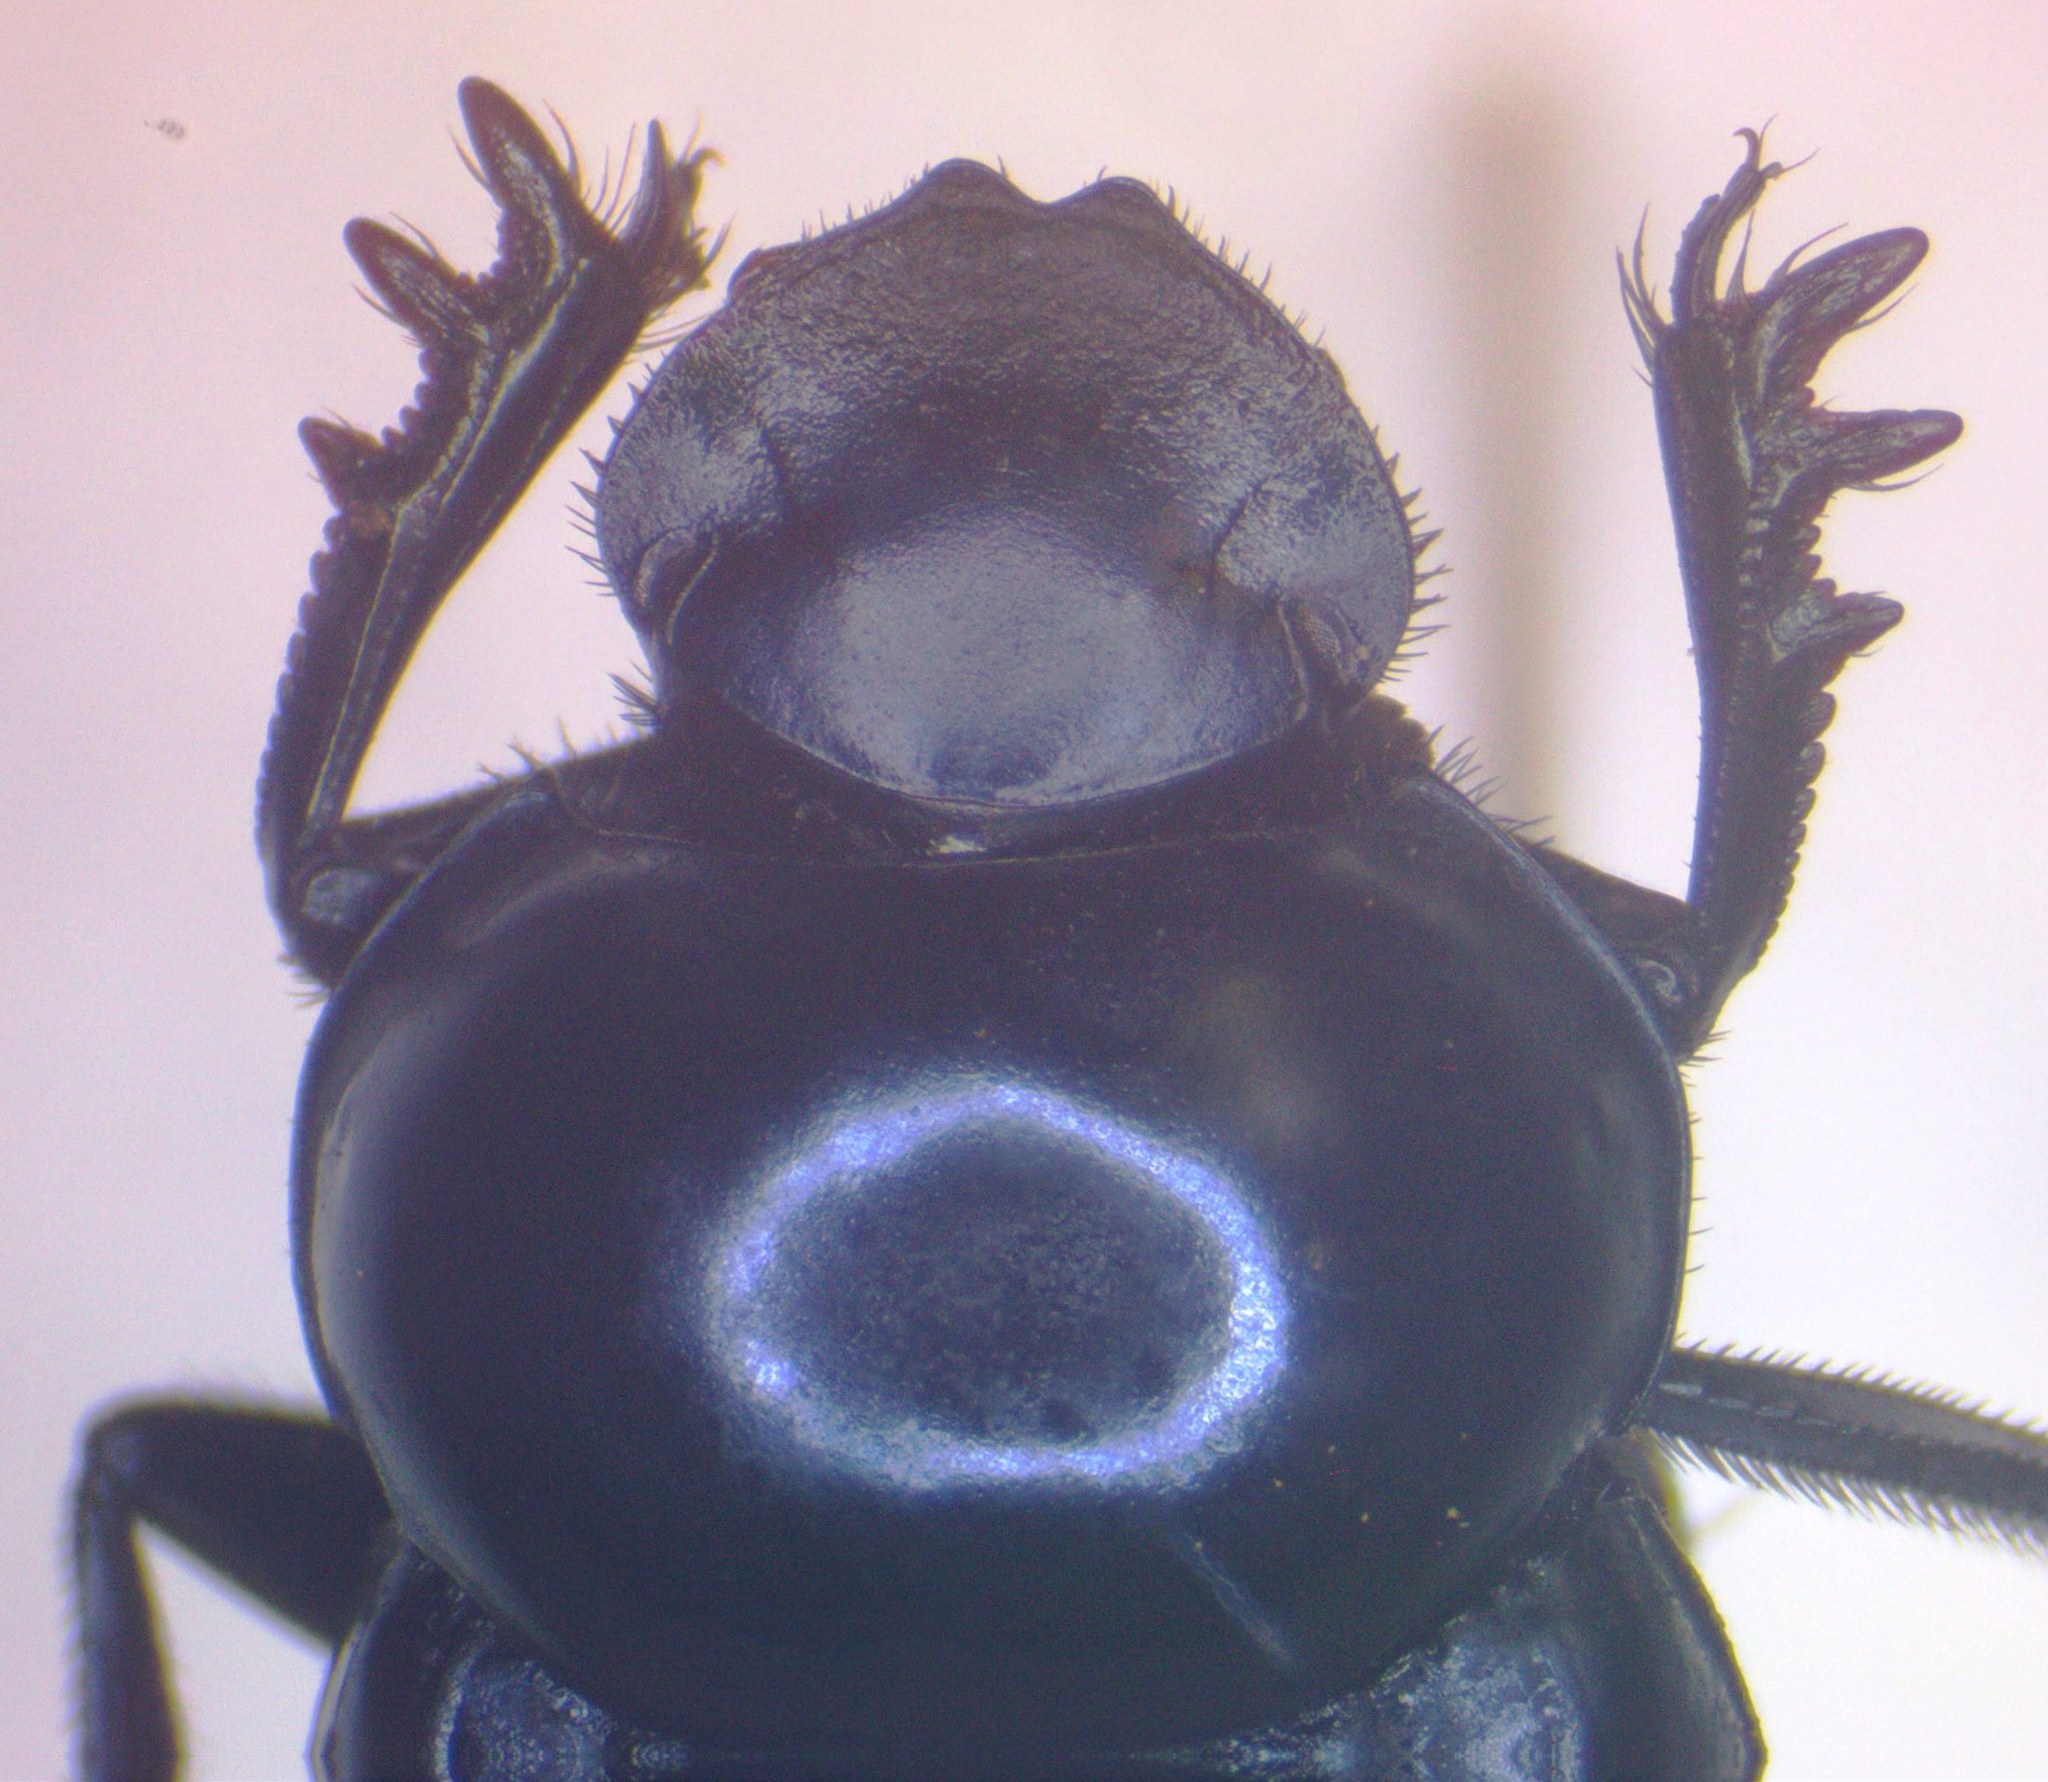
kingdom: Animalia
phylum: Arthropoda
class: Insecta
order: Coleoptera
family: Scarabaeidae
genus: Canthon
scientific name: Canthon indigaceus
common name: Tumblebug
